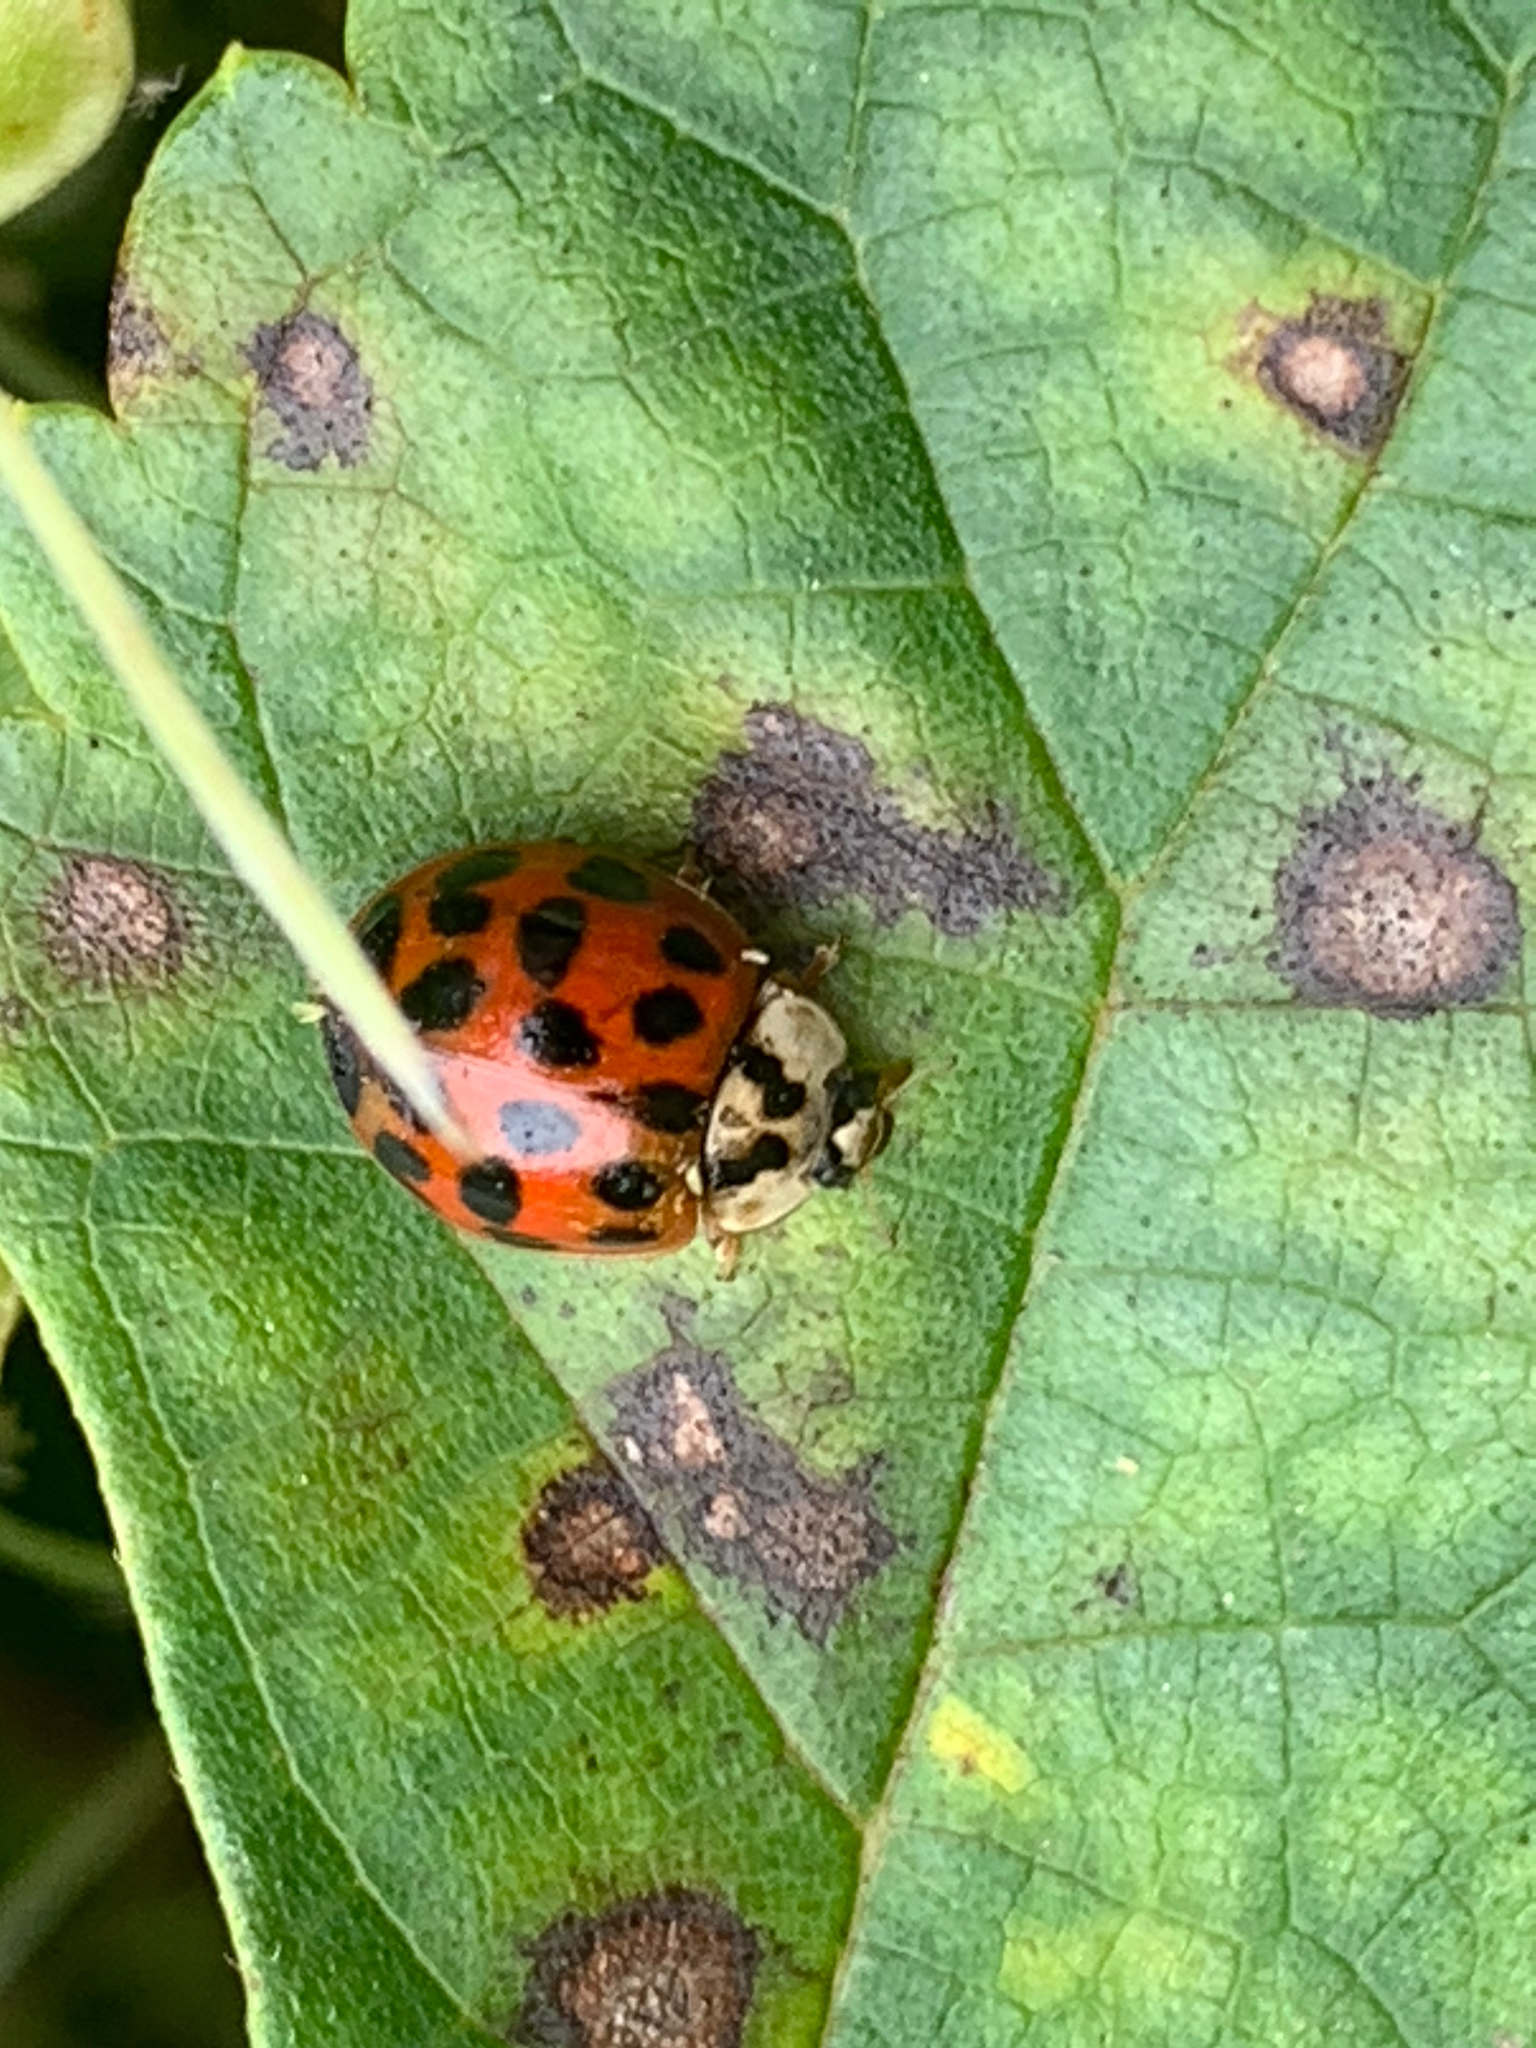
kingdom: Animalia
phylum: Arthropoda
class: Insecta
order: Coleoptera
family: Coccinellidae
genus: Harmonia
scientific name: Harmonia axyridis
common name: Harlequin ladybird
